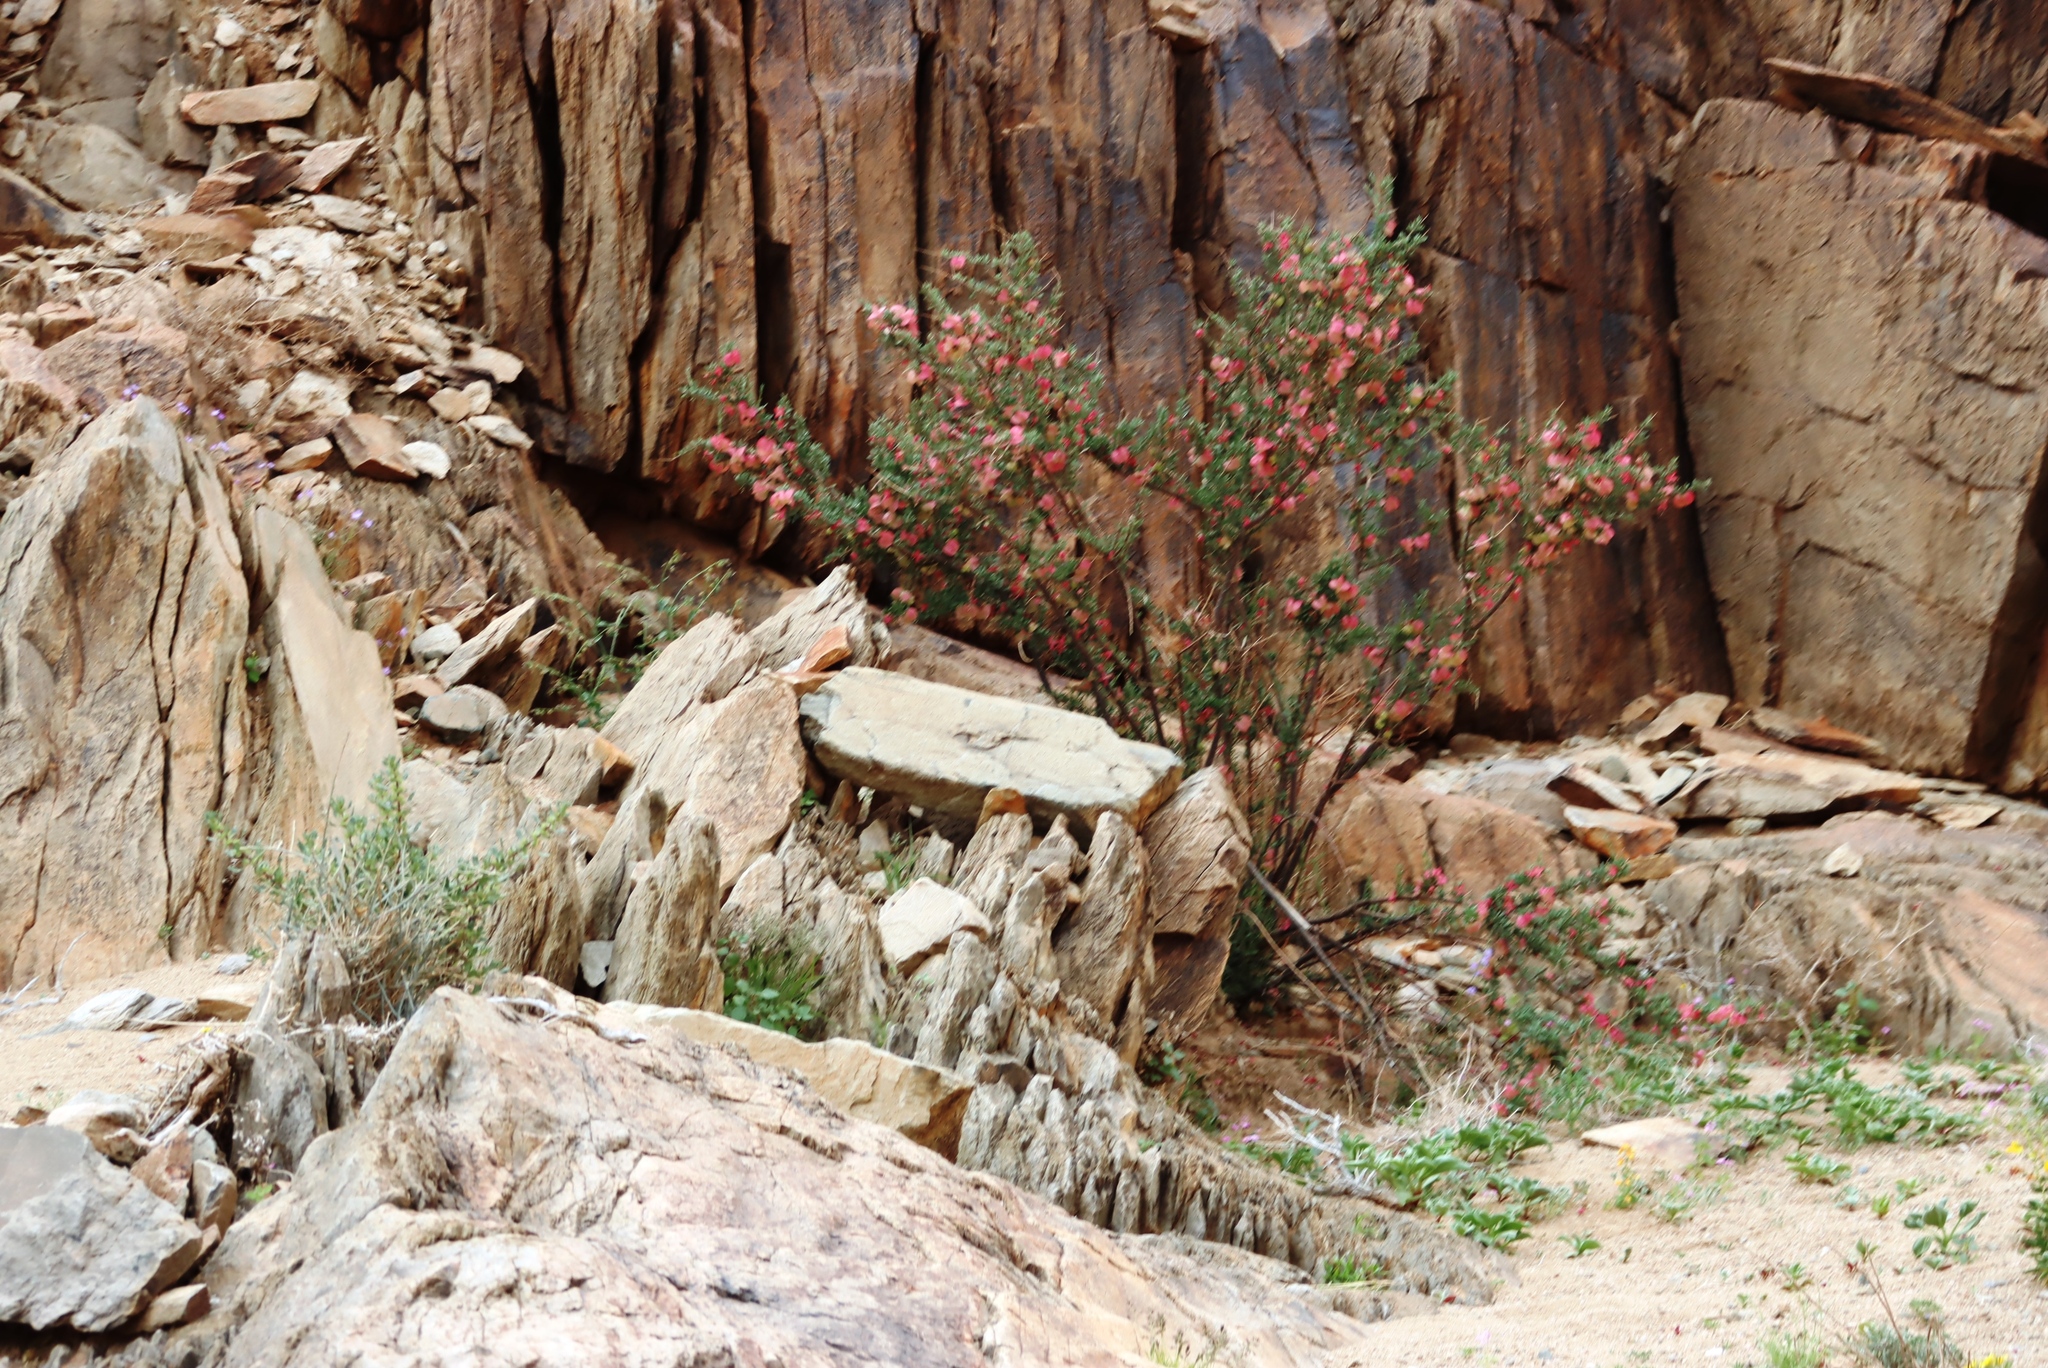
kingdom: Plantae
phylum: Tracheophyta
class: Magnoliopsida
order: Sapindales
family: Meliaceae
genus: Nymania
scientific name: Nymania capensis
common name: Chinese lantern tree
